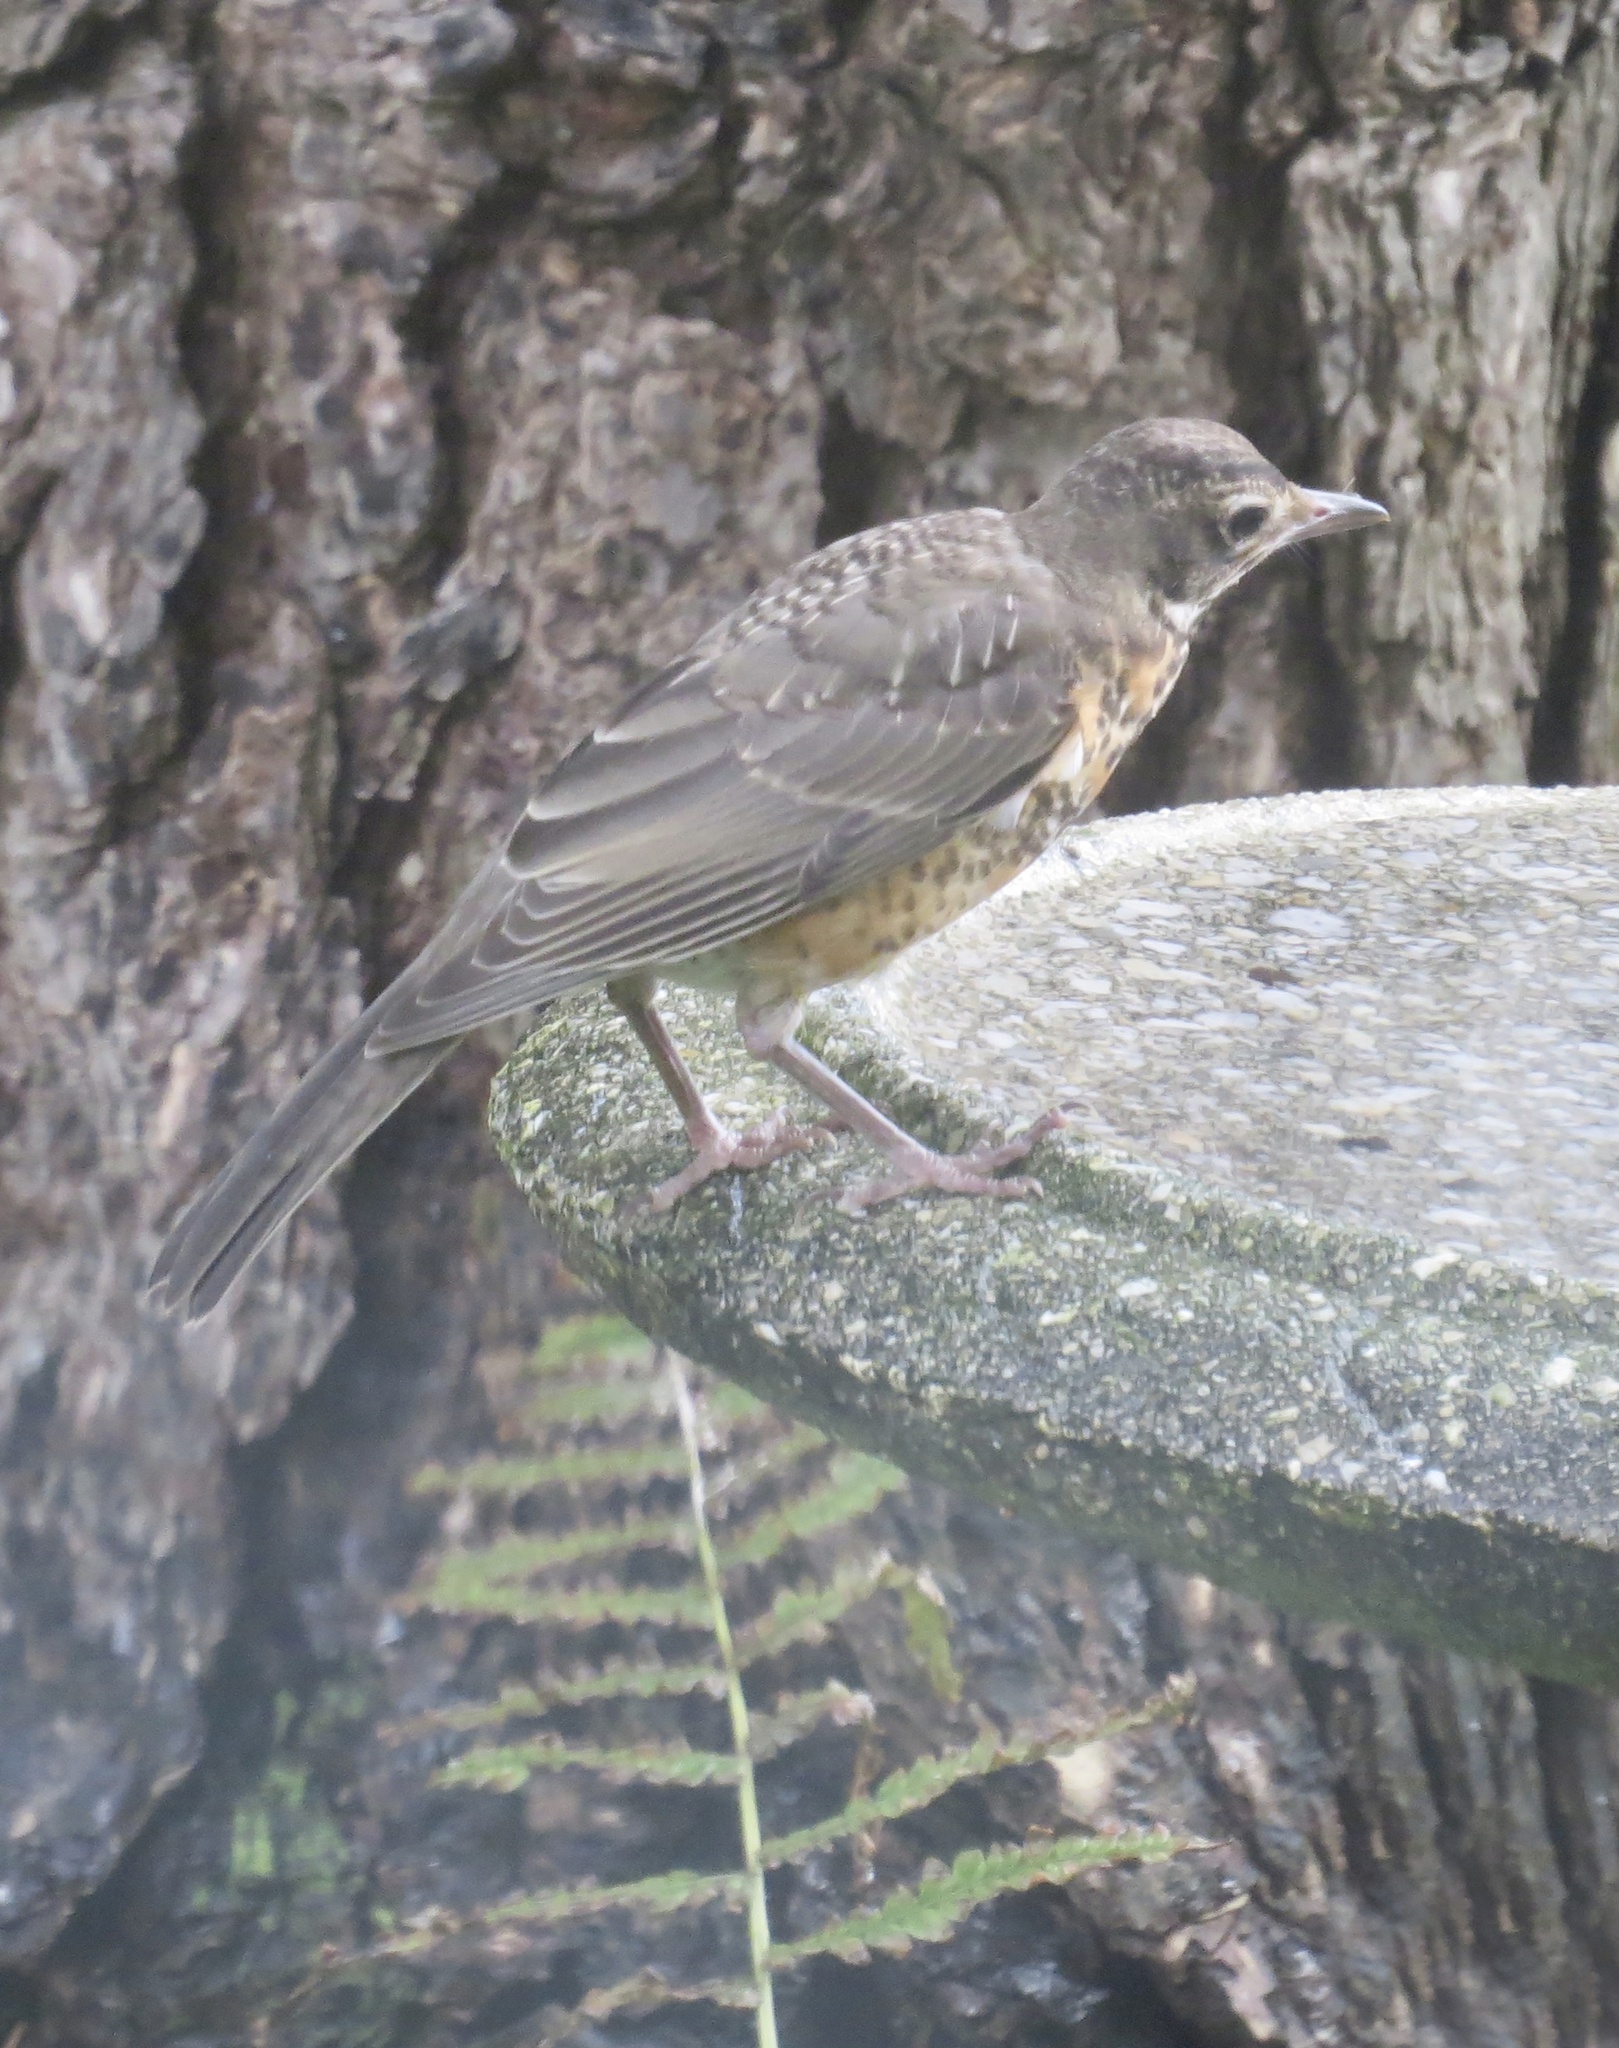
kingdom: Animalia
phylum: Chordata
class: Aves
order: Passeriformes
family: Turdidae
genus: Turdus
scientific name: Turdus migratorius
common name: American robin
